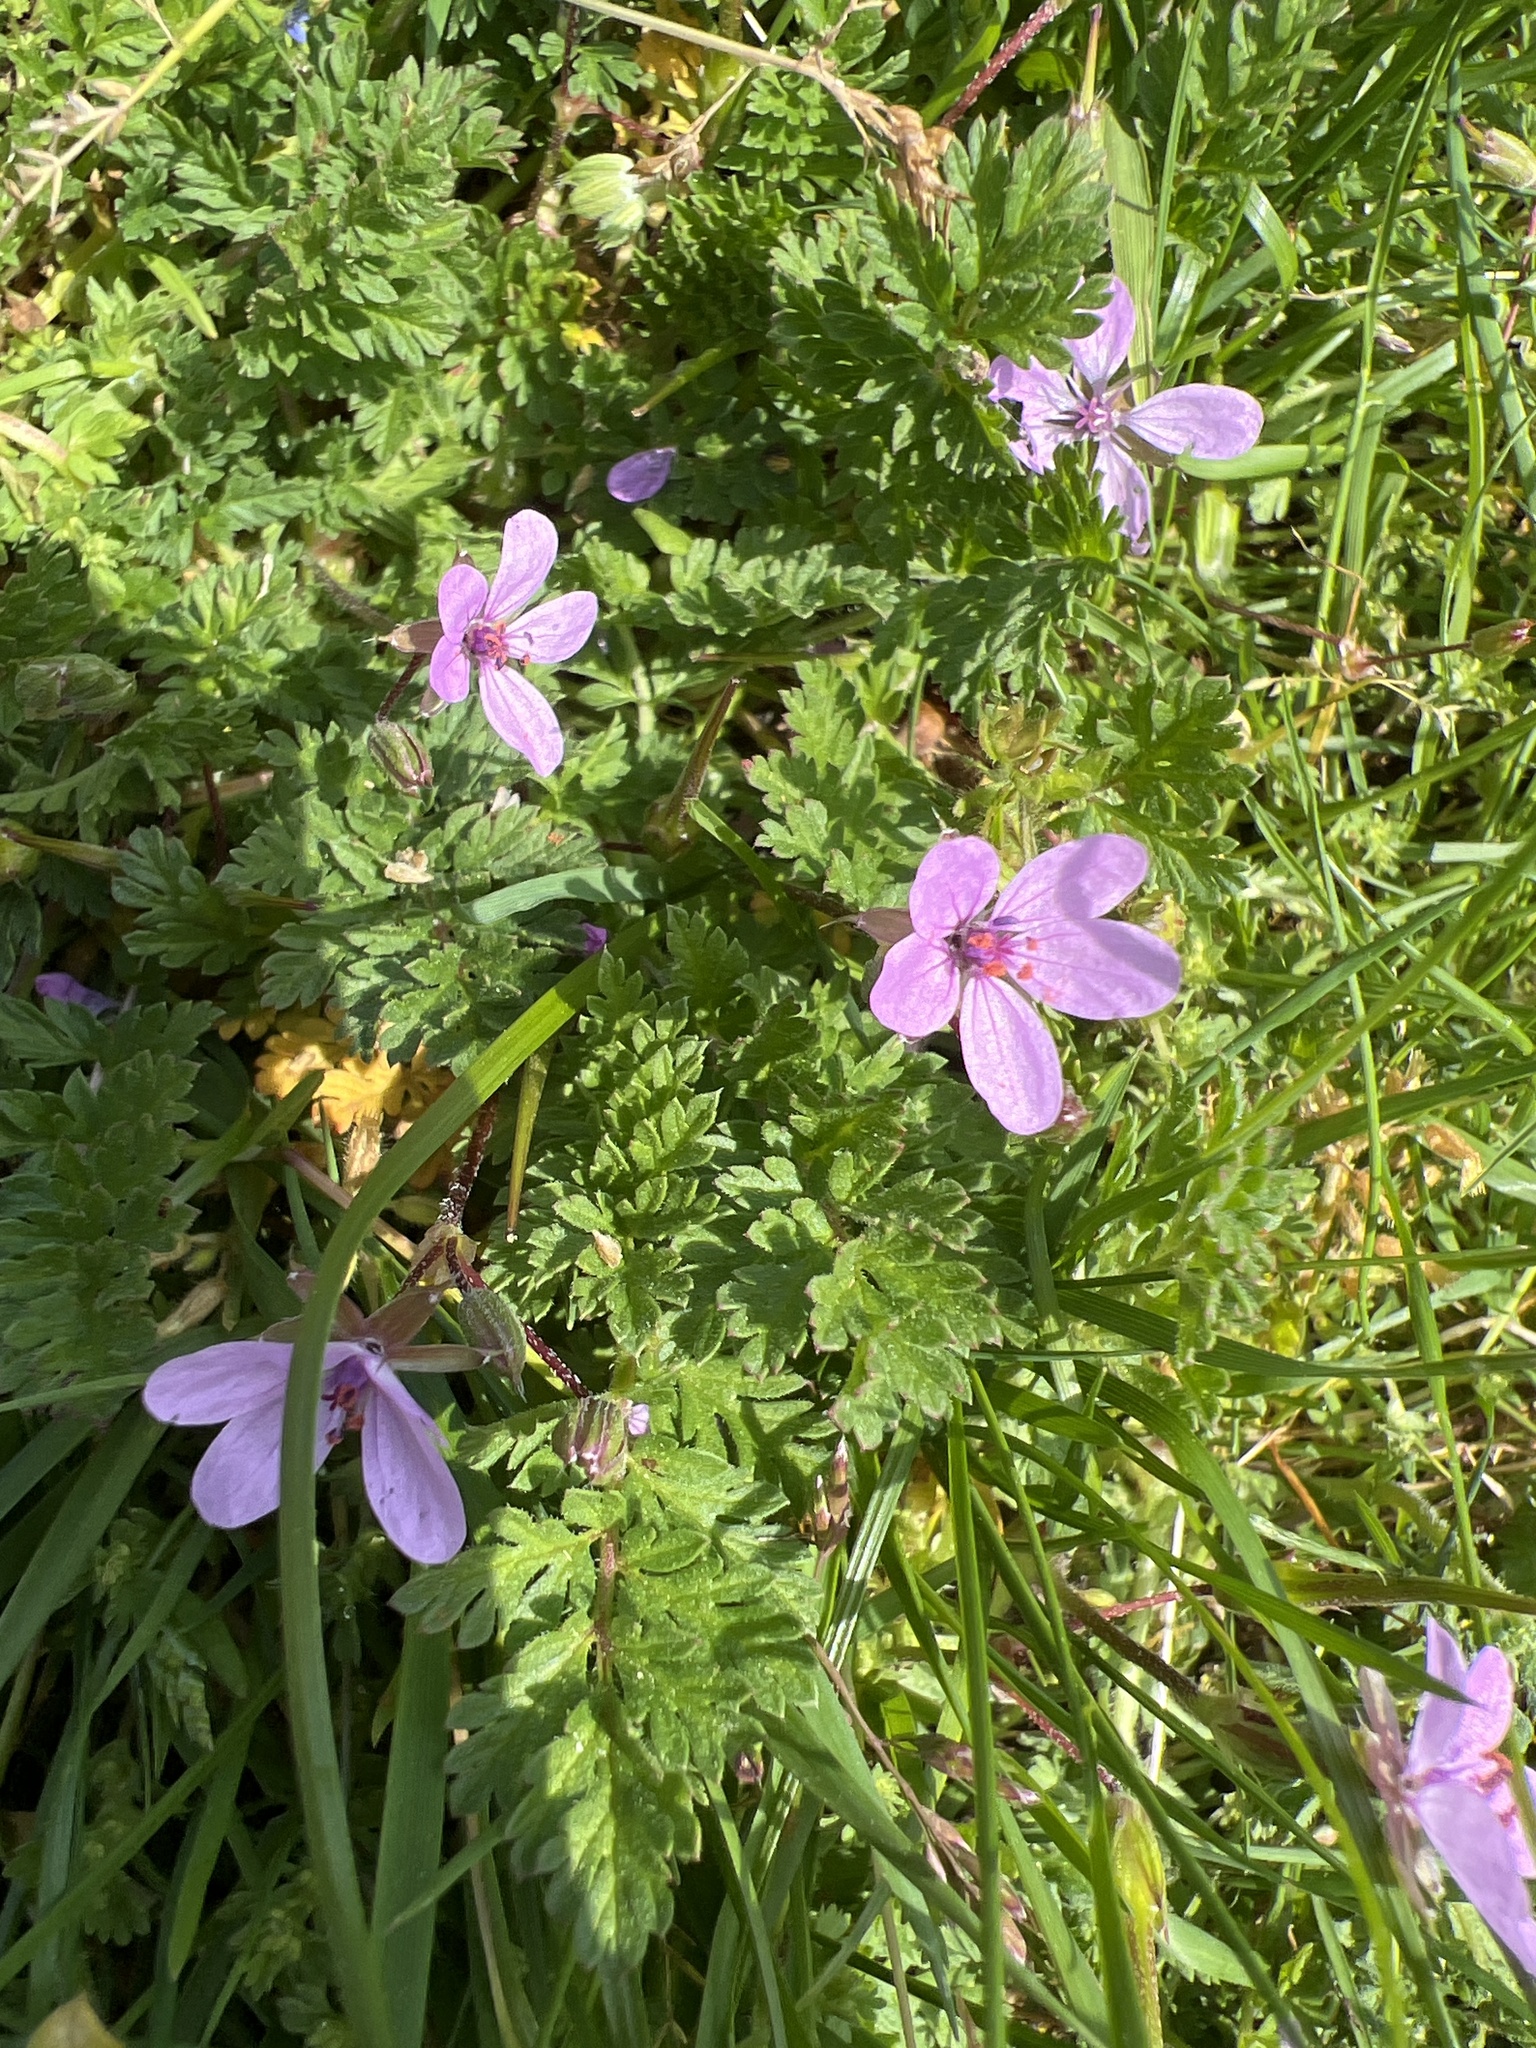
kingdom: Plantae
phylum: Tracheophyta
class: Magnoliopsida
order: Geraniales
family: Geraniaceae
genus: Erodium
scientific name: Erodium cicutarium
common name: Common stork's-bill
